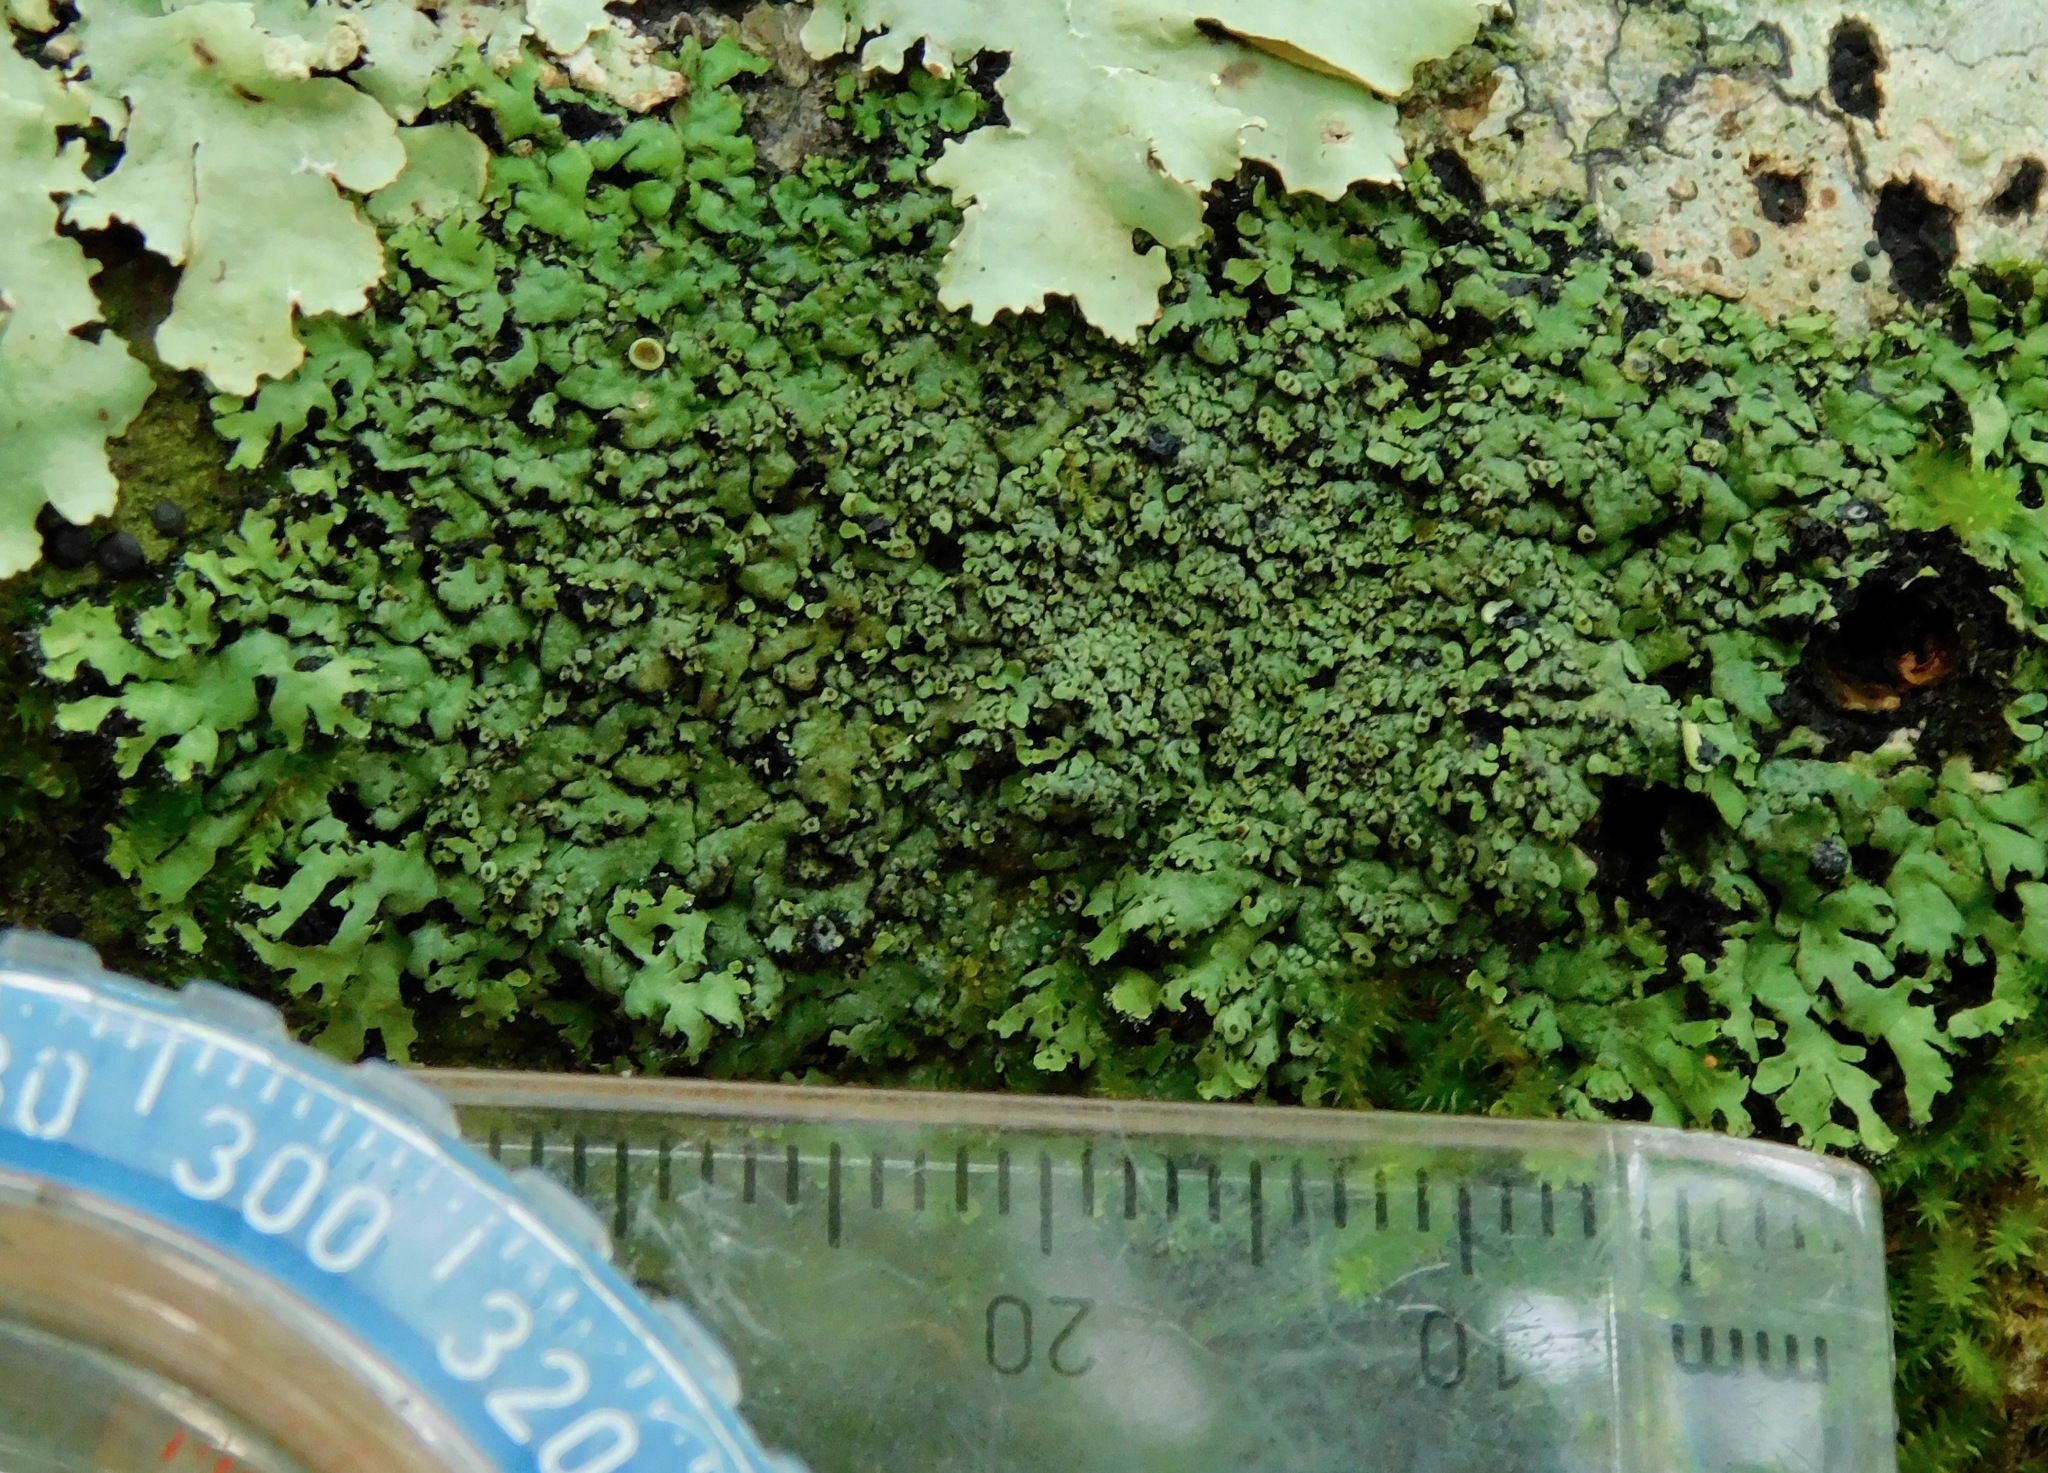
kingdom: Fungi
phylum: Ascomycota
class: Lecanoromycetes
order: Caliciales
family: Physciaceae
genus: Phaeophyscia
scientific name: Phaeophyscia ciliata
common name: Smooth shadow lichen
